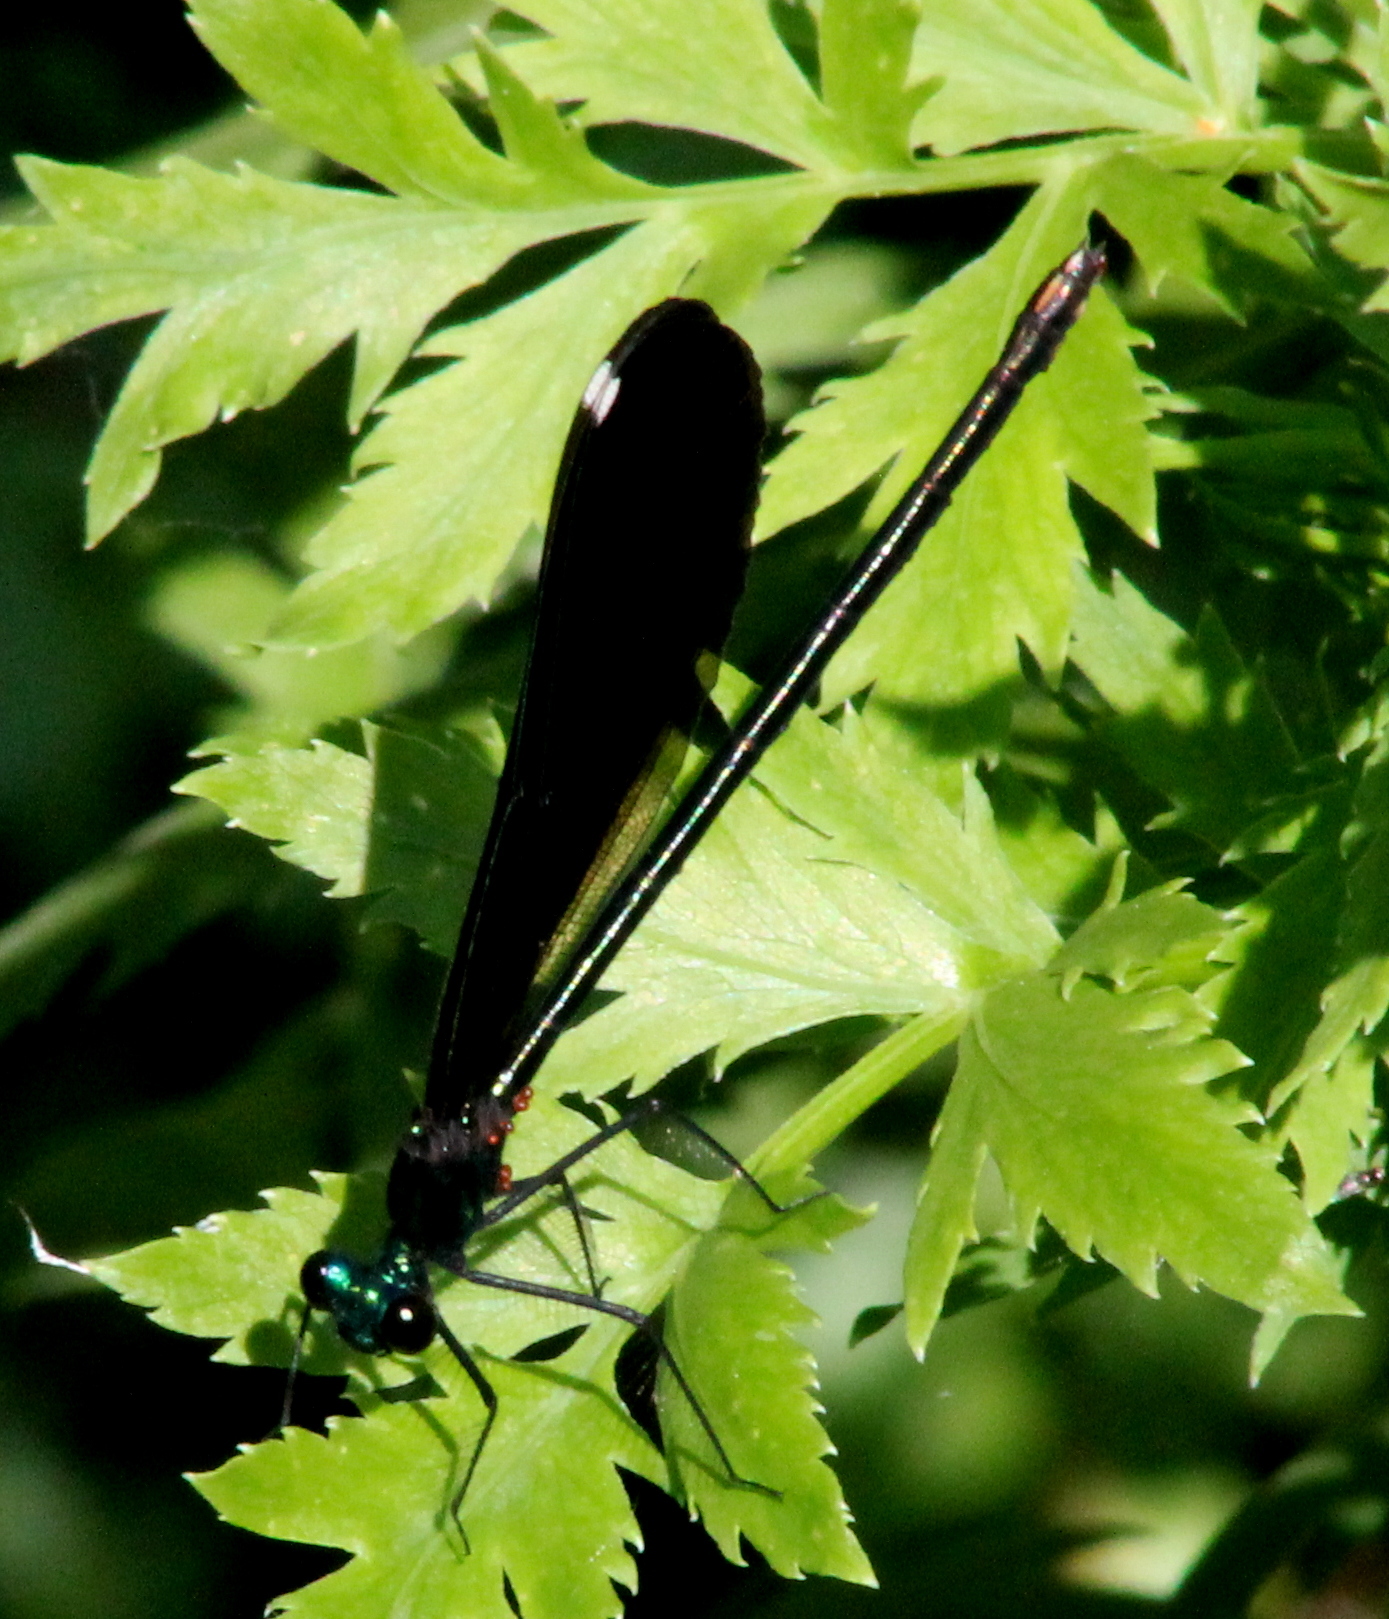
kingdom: Animalia
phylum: Arthropoda
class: Insecta
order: Odonata
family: Calopterygidae
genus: Calopteryx
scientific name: Calopteryx maculata
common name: Ebony jewelwing
